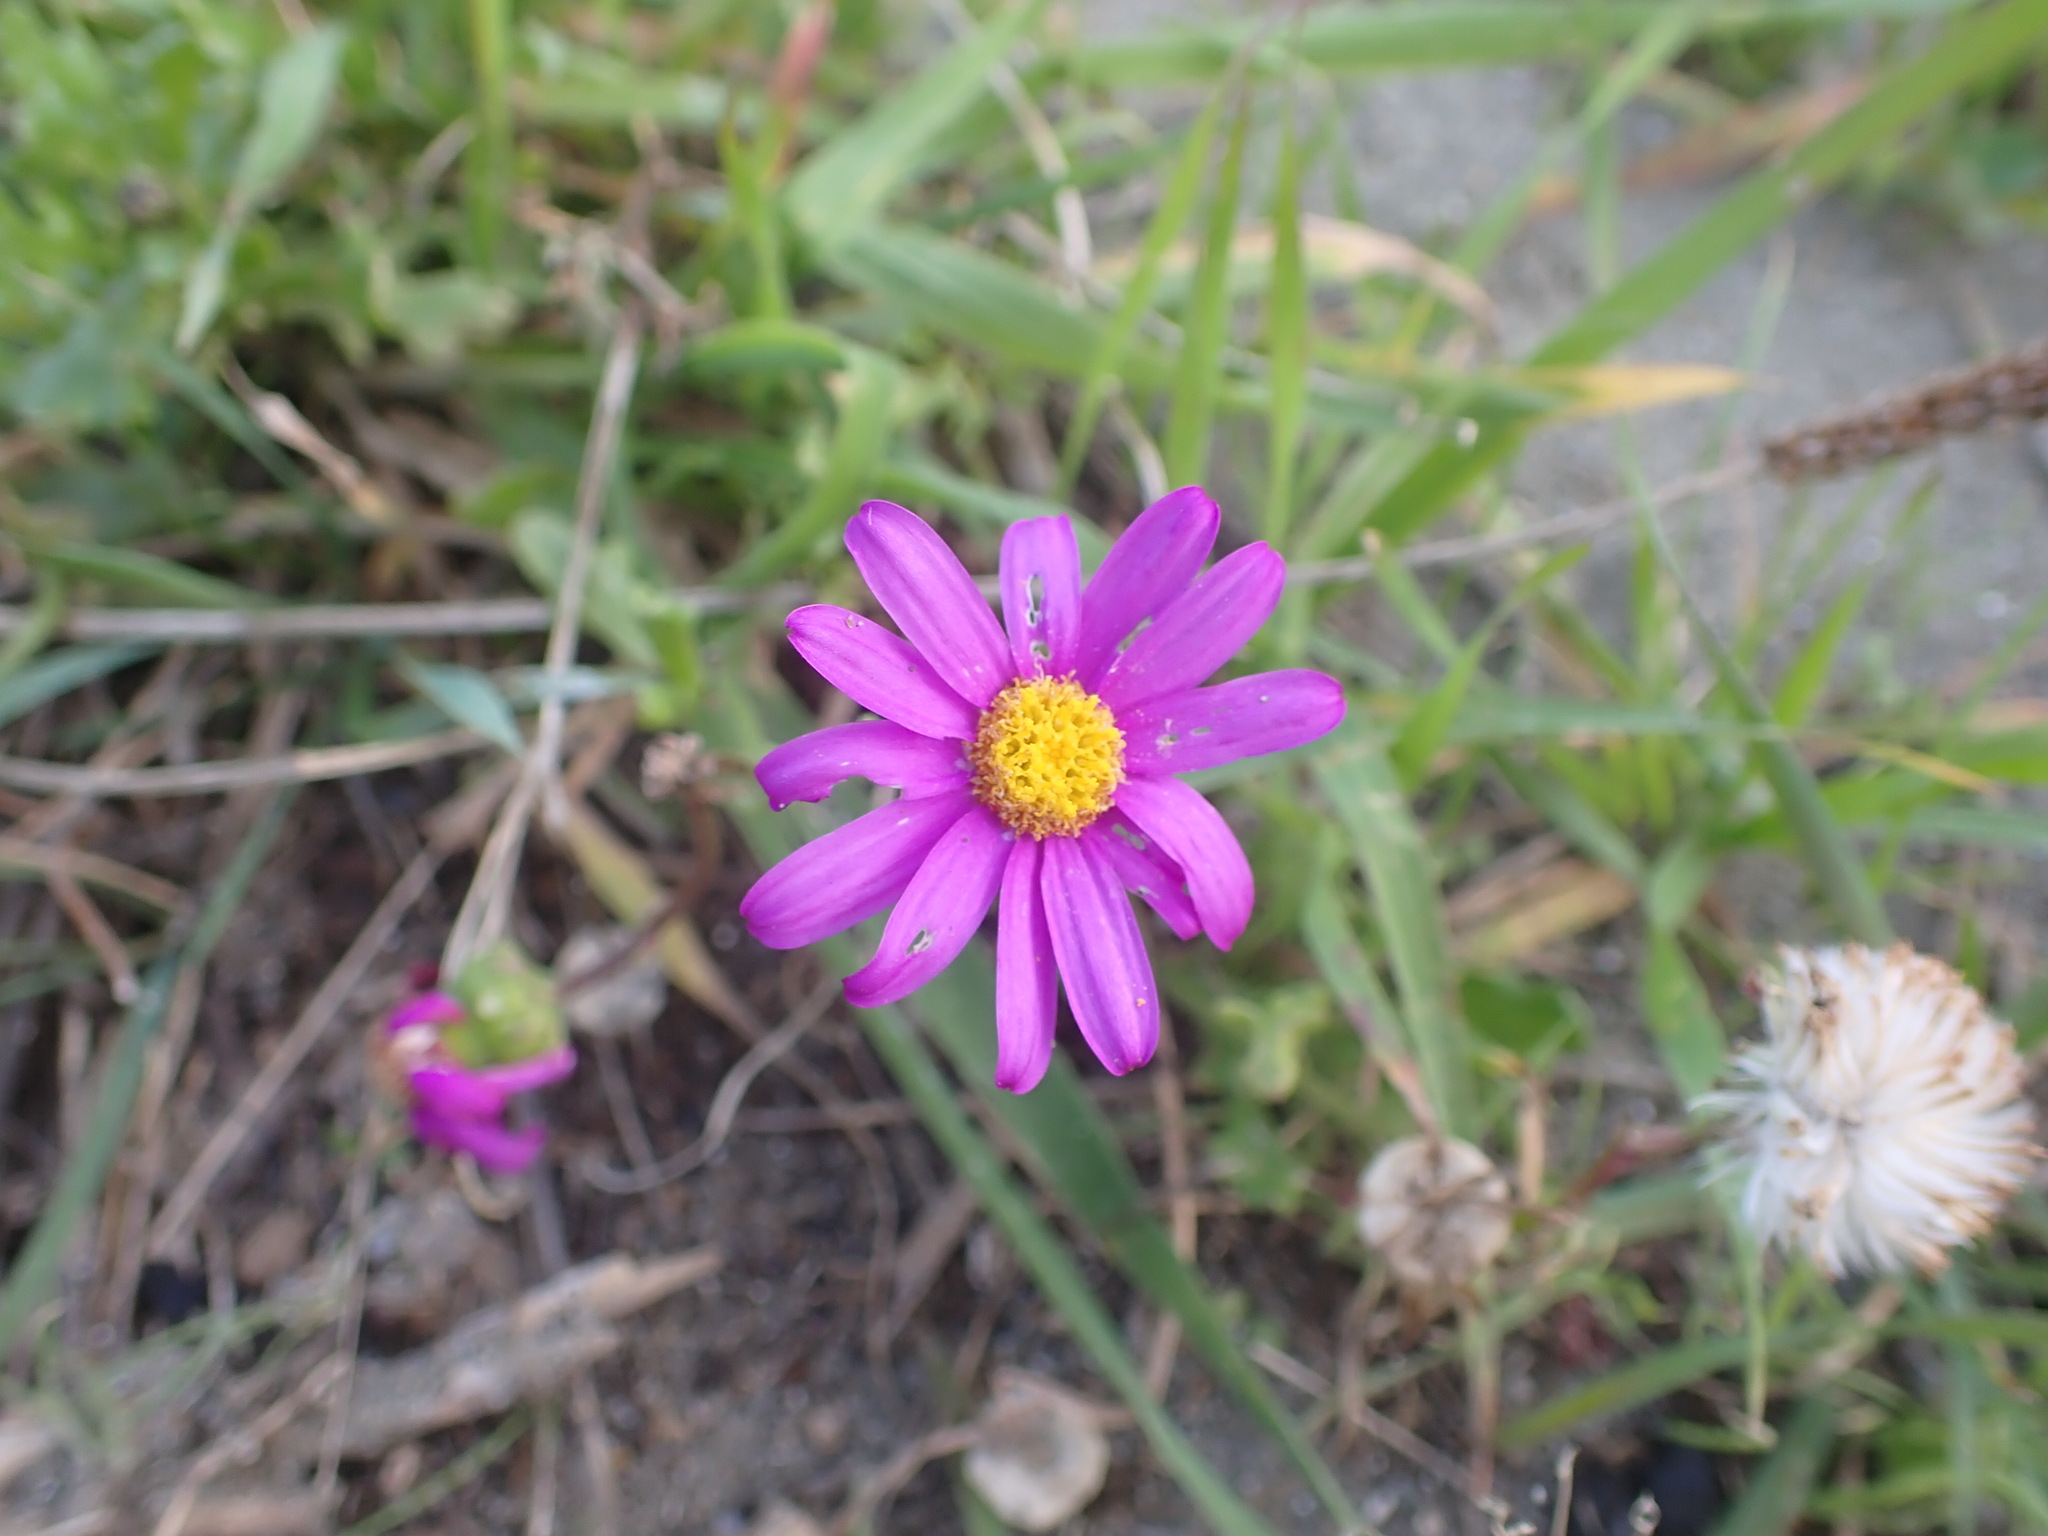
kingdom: Plantae
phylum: Tracheophyta
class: Magnoliopsida
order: Asterales
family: Asteraceae
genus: Senecio
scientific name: Senecio elegans
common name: Purple groundsel
